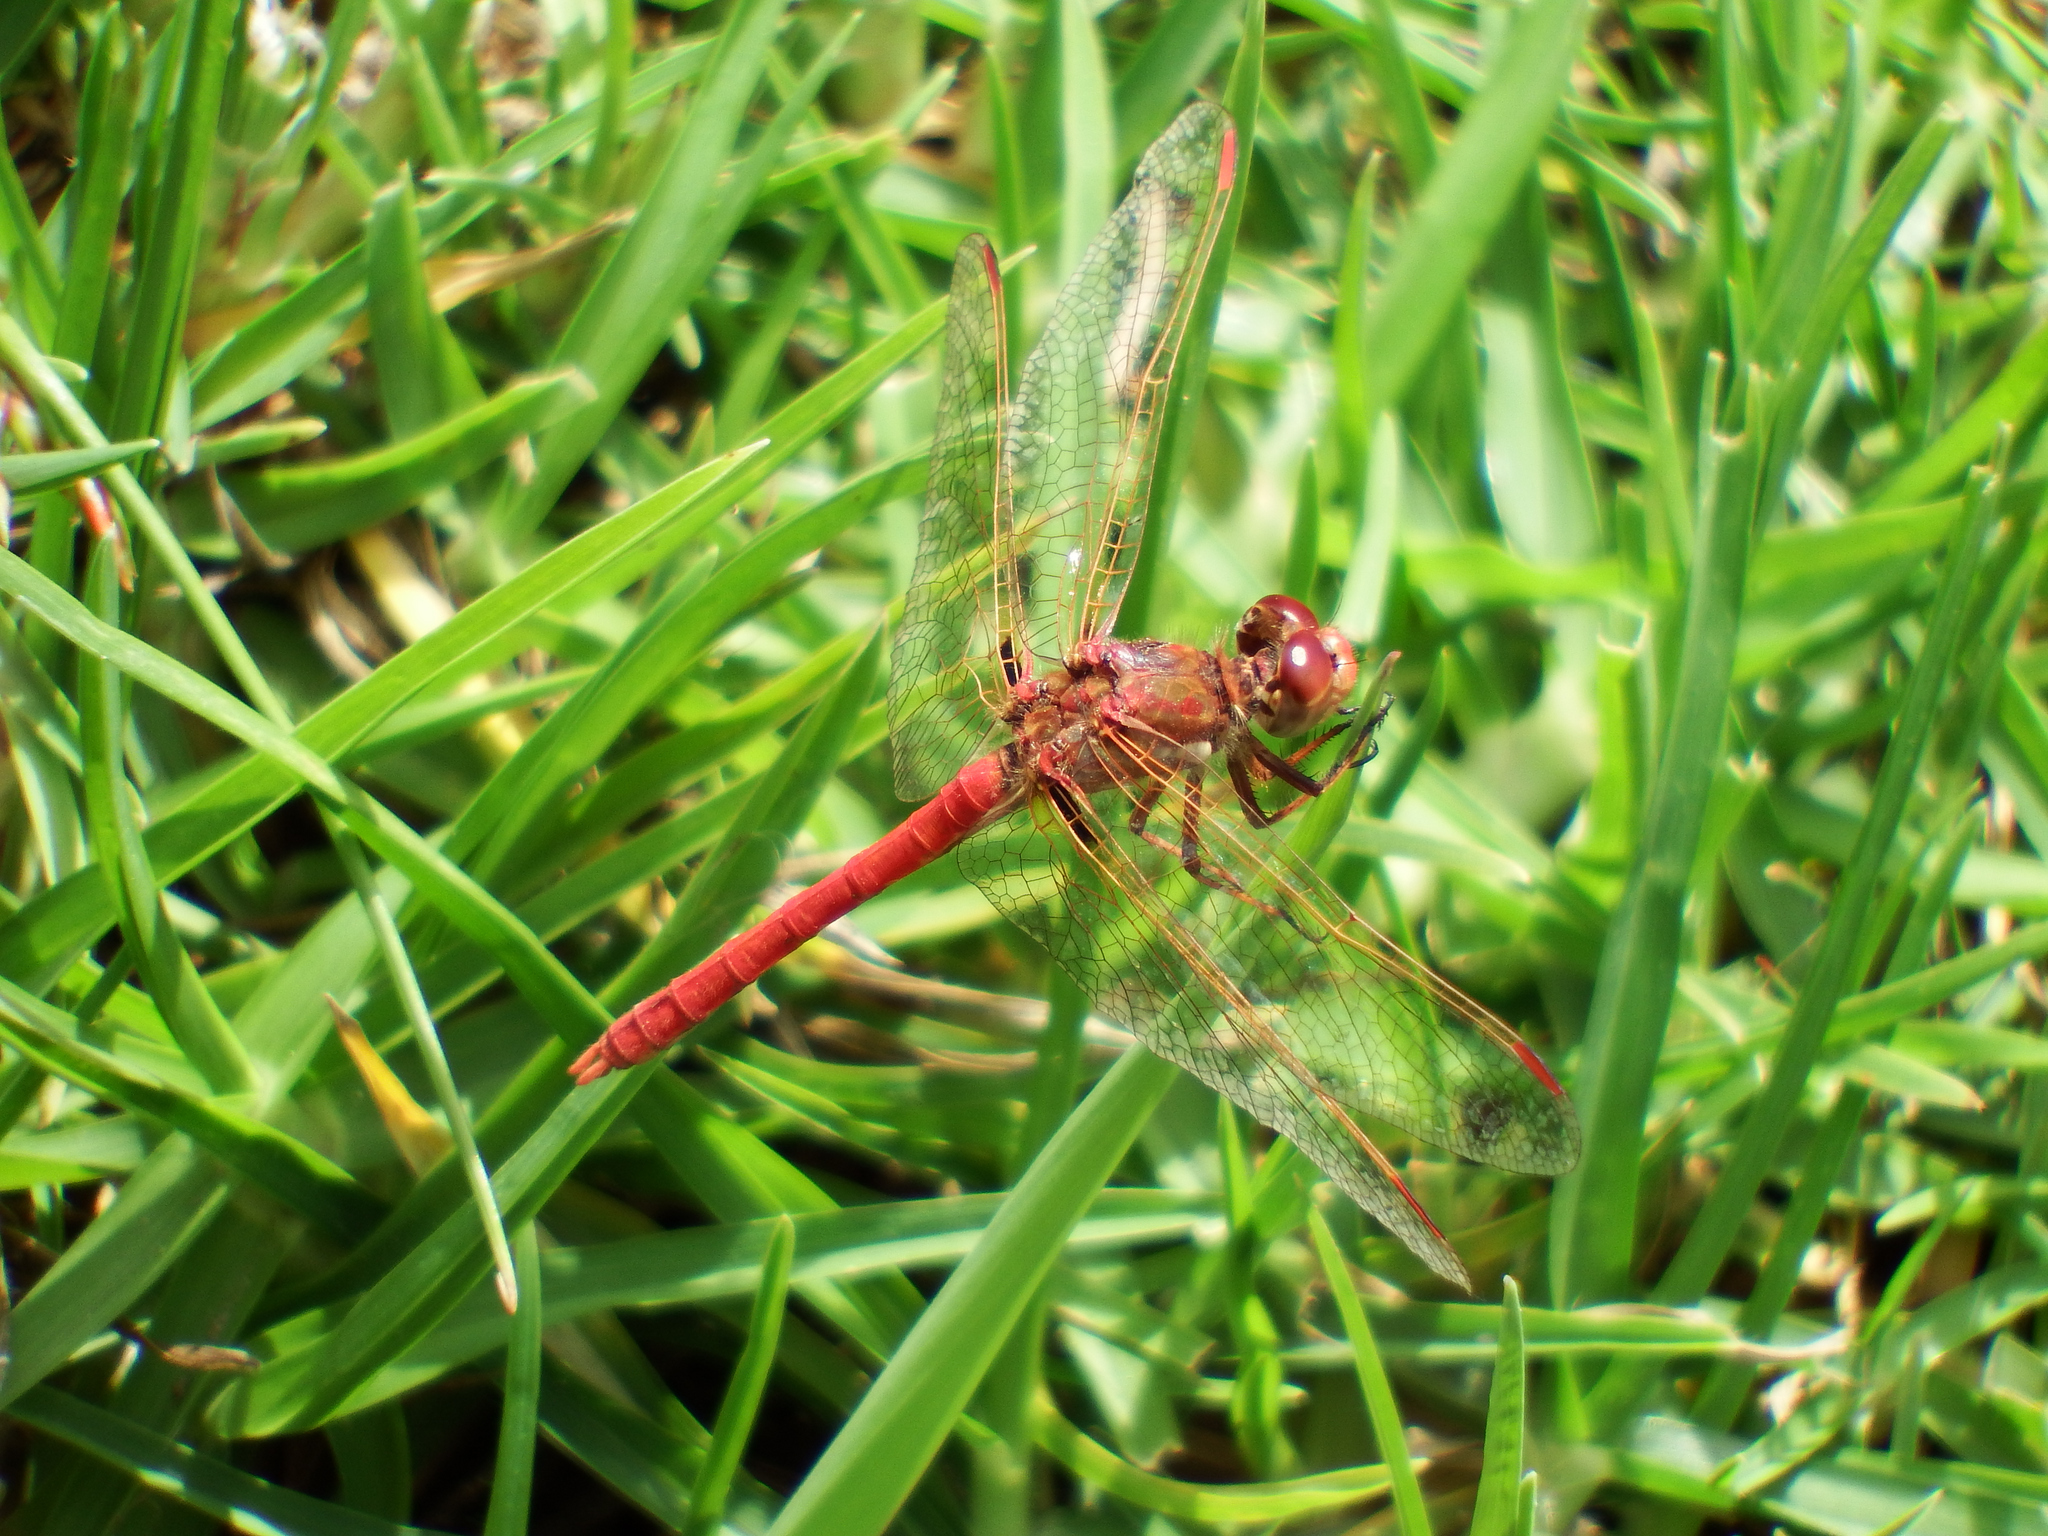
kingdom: Animalia
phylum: Arthropoda
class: Insecta
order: Odonata
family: Libellulidae
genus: Sympetrum
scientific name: Sympetrum gilvum
